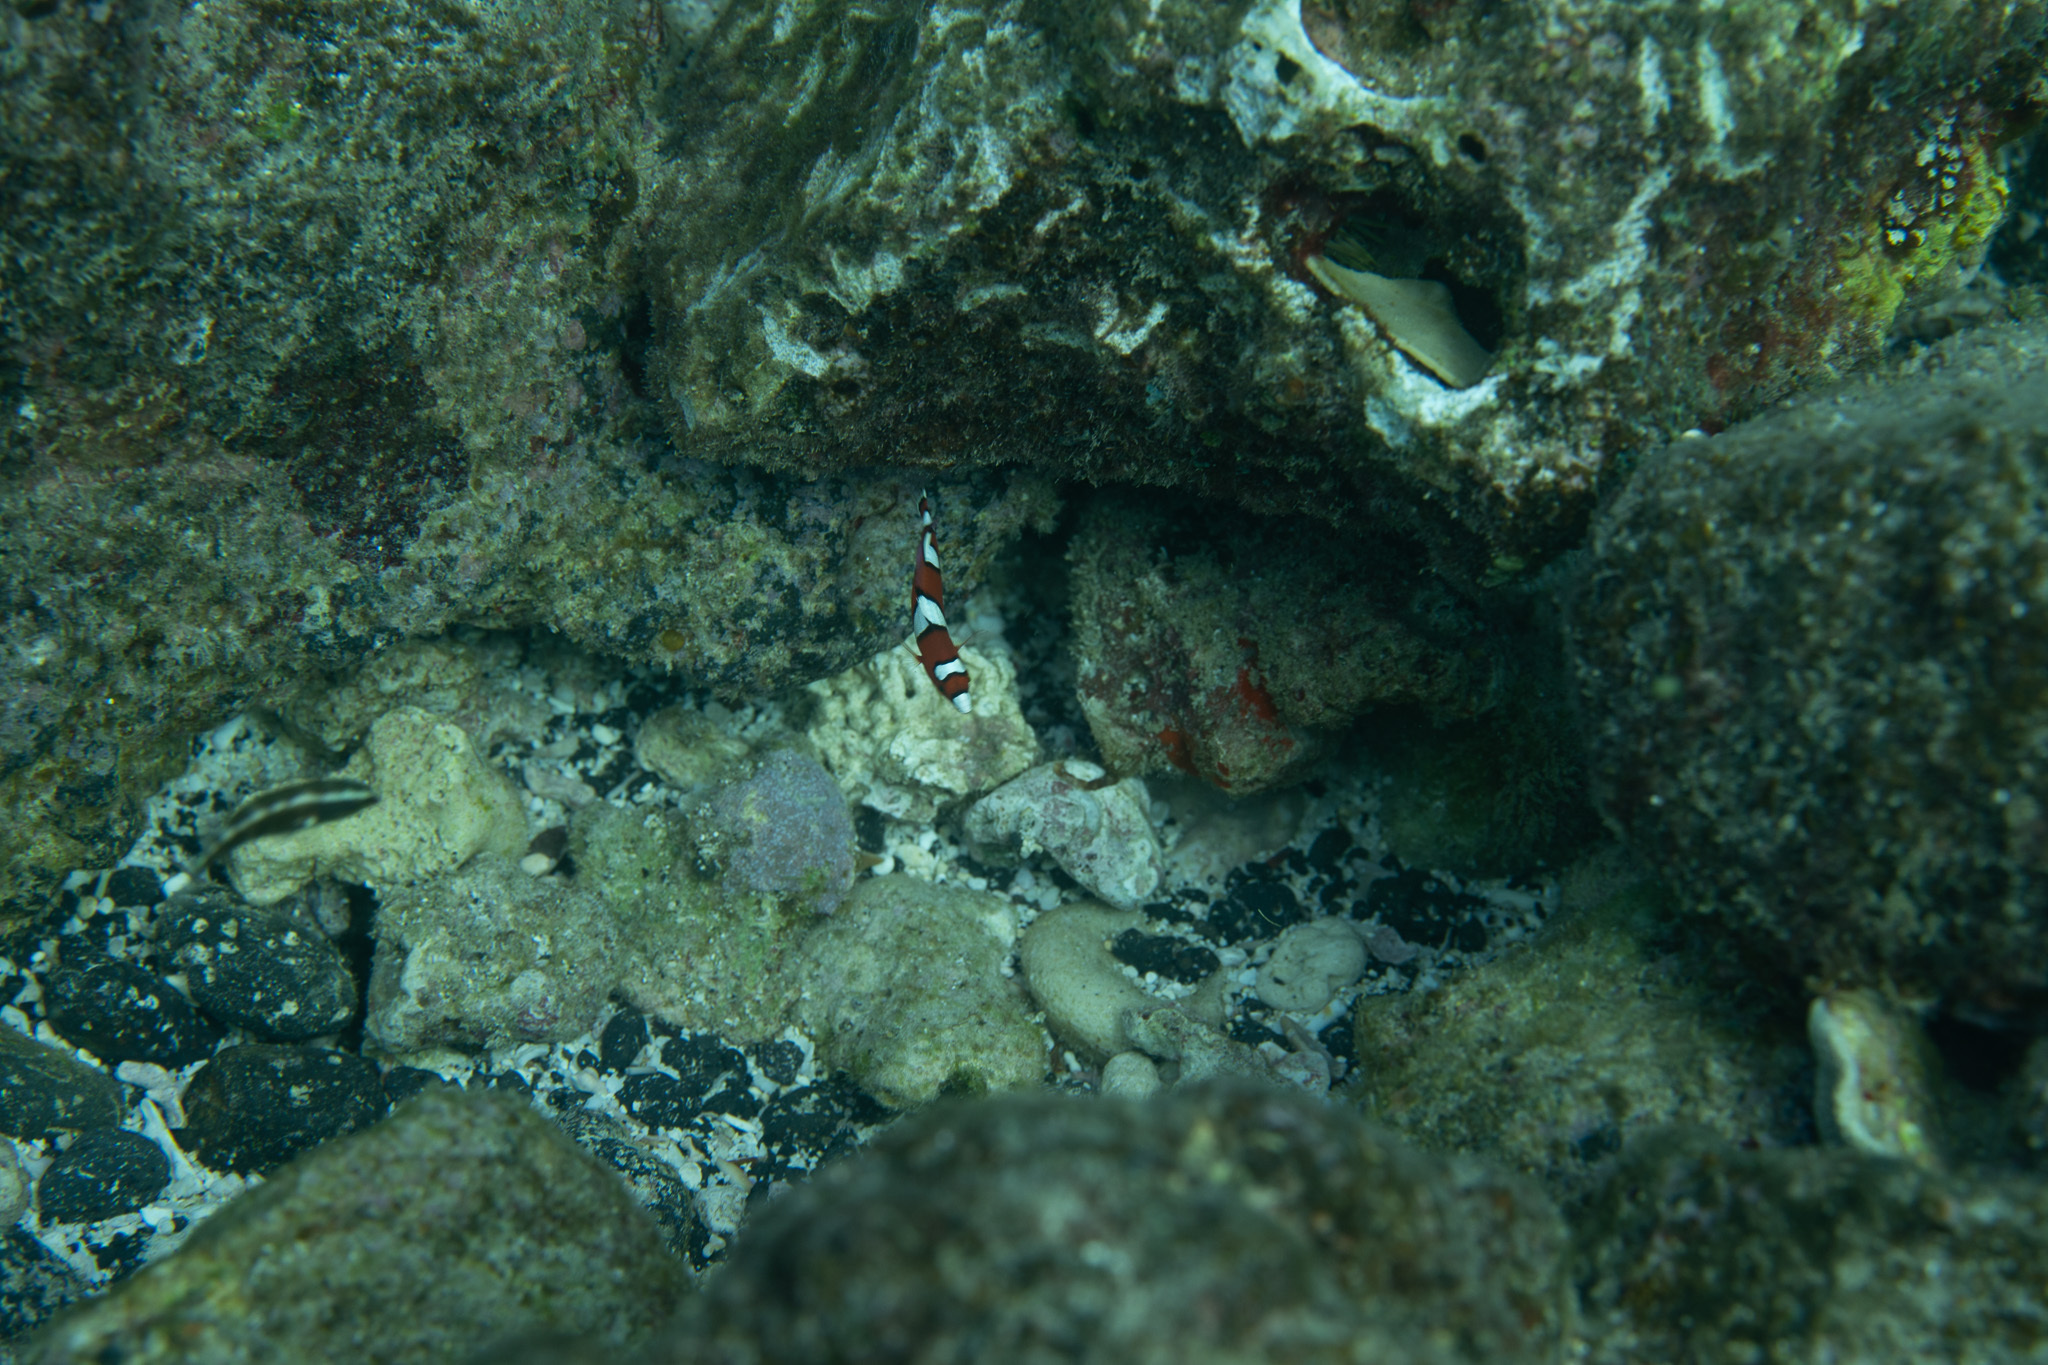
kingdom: Animalia
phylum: Chordata
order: Perciformes
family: Labridae
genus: Coris
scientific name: Coris gaimard
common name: Yellowtail coris
